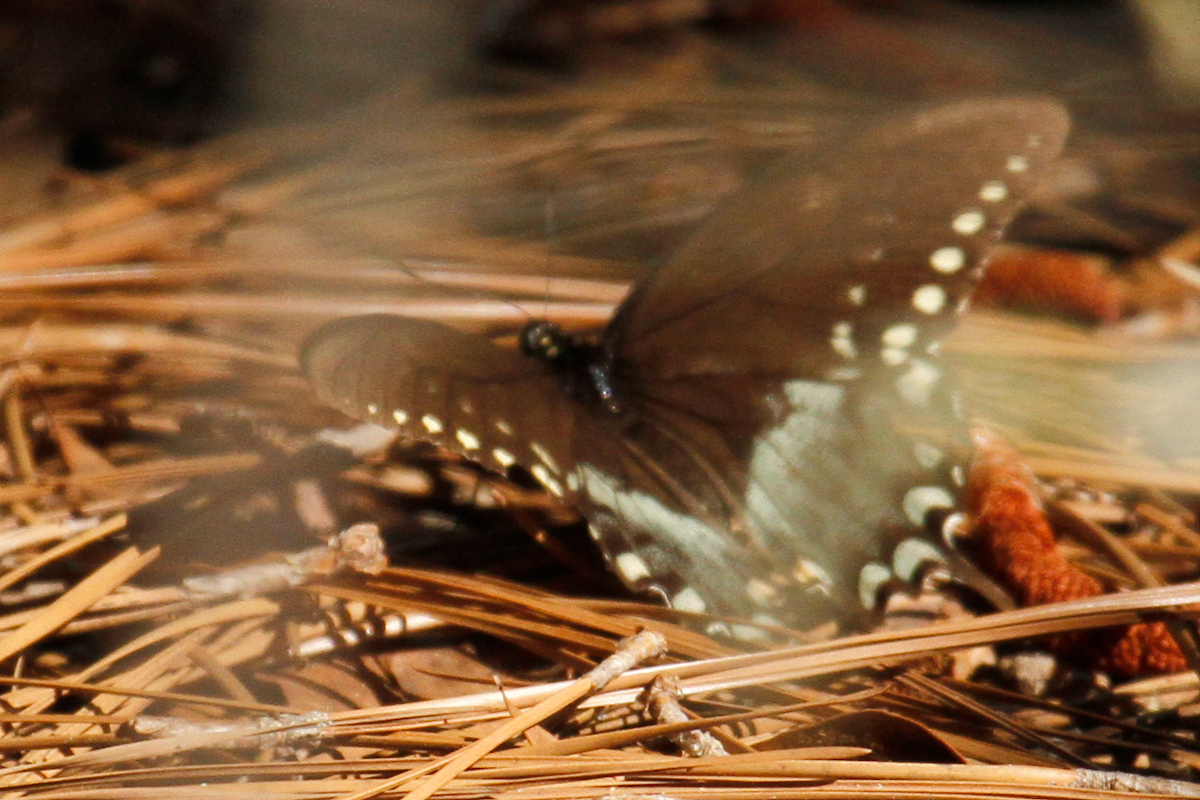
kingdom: Animalia
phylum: Arthropoda
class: Insecta
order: Lepidoptera
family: Papilionidae
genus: Papilio
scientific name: Papilio troilus
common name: Spicebush swallowtail
